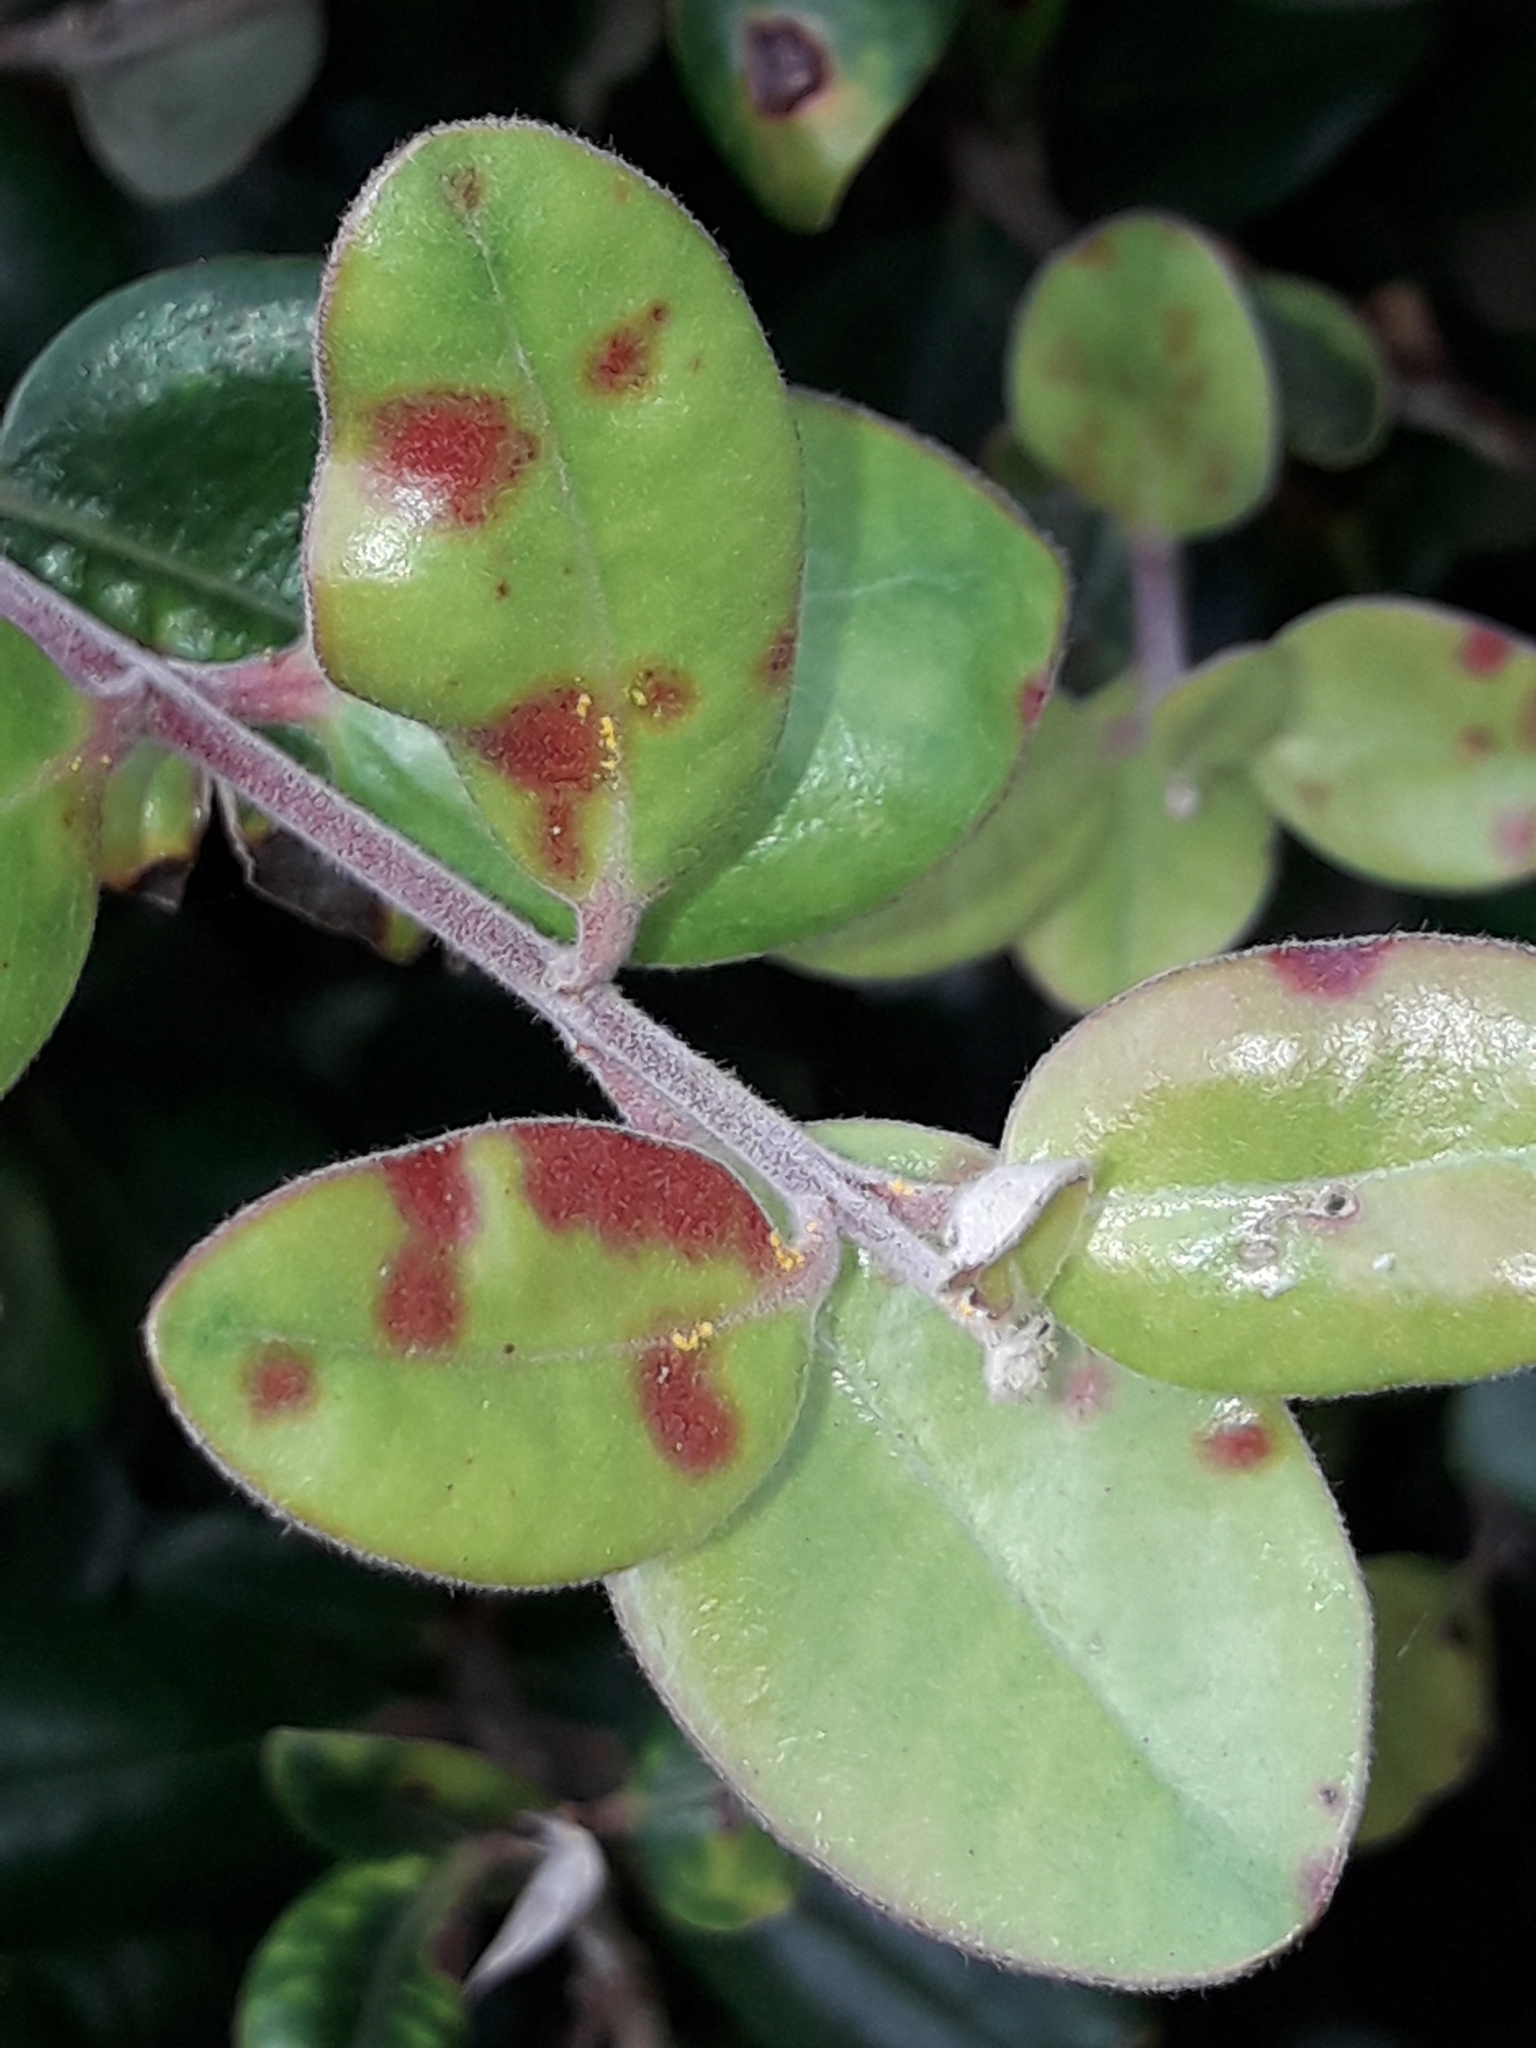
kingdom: Fungi
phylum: Basidiomycota
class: Pucciniomycetes
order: Pucciniales
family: Sphaerophragmiaceae
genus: Austropuccinia
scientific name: Austropuccinia psidii
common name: Myrtle rust
